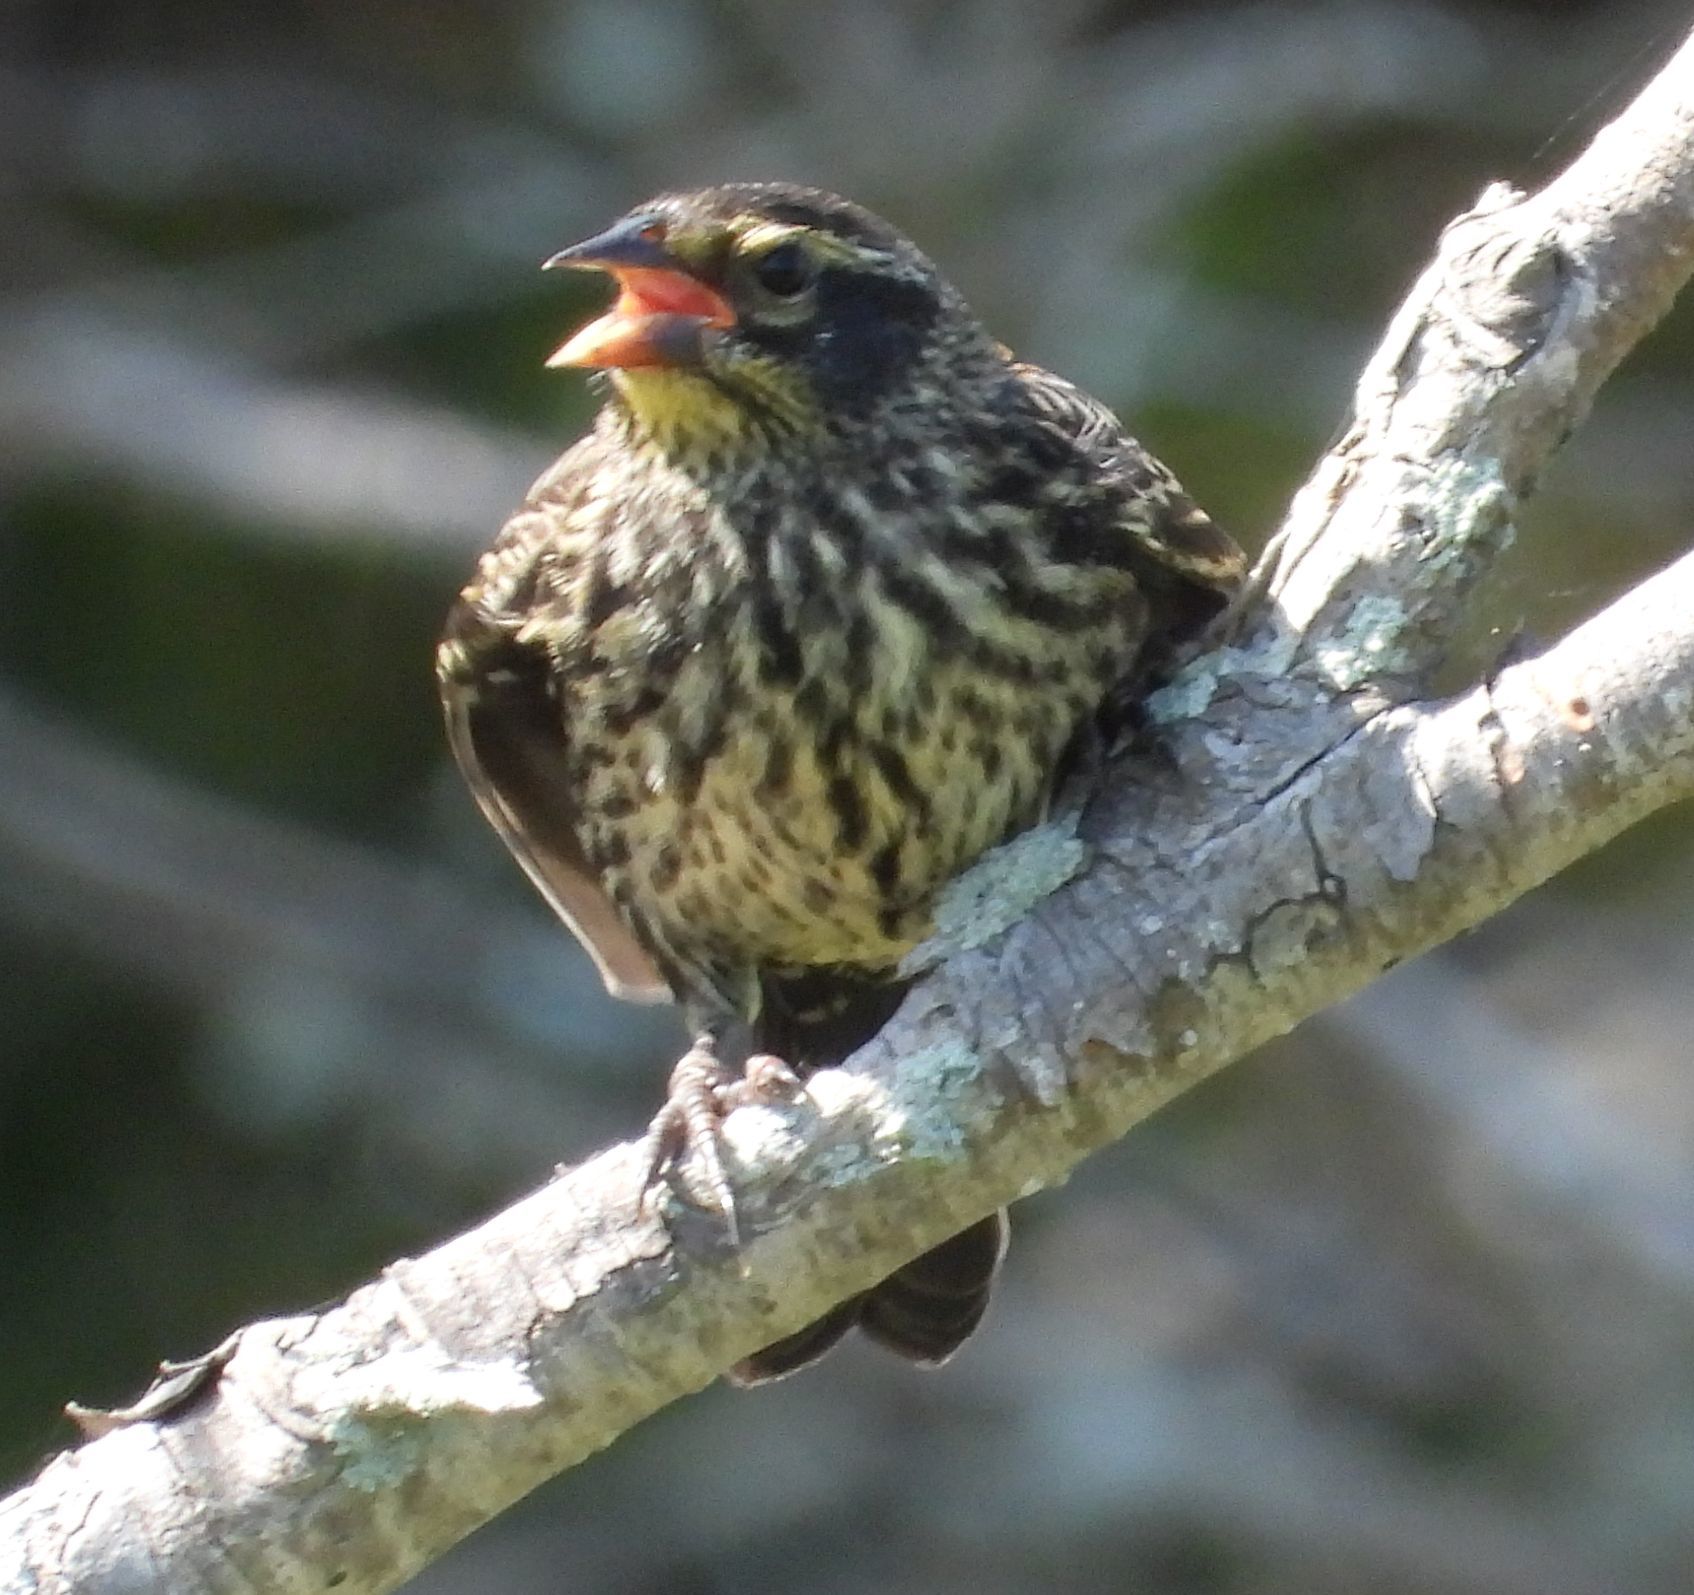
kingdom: Animalia
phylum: Chordata
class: Aves
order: Passeriformes
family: Icteridae
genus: Agelaius
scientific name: Agelaius phoeniceus
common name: Red-winged blackbird
